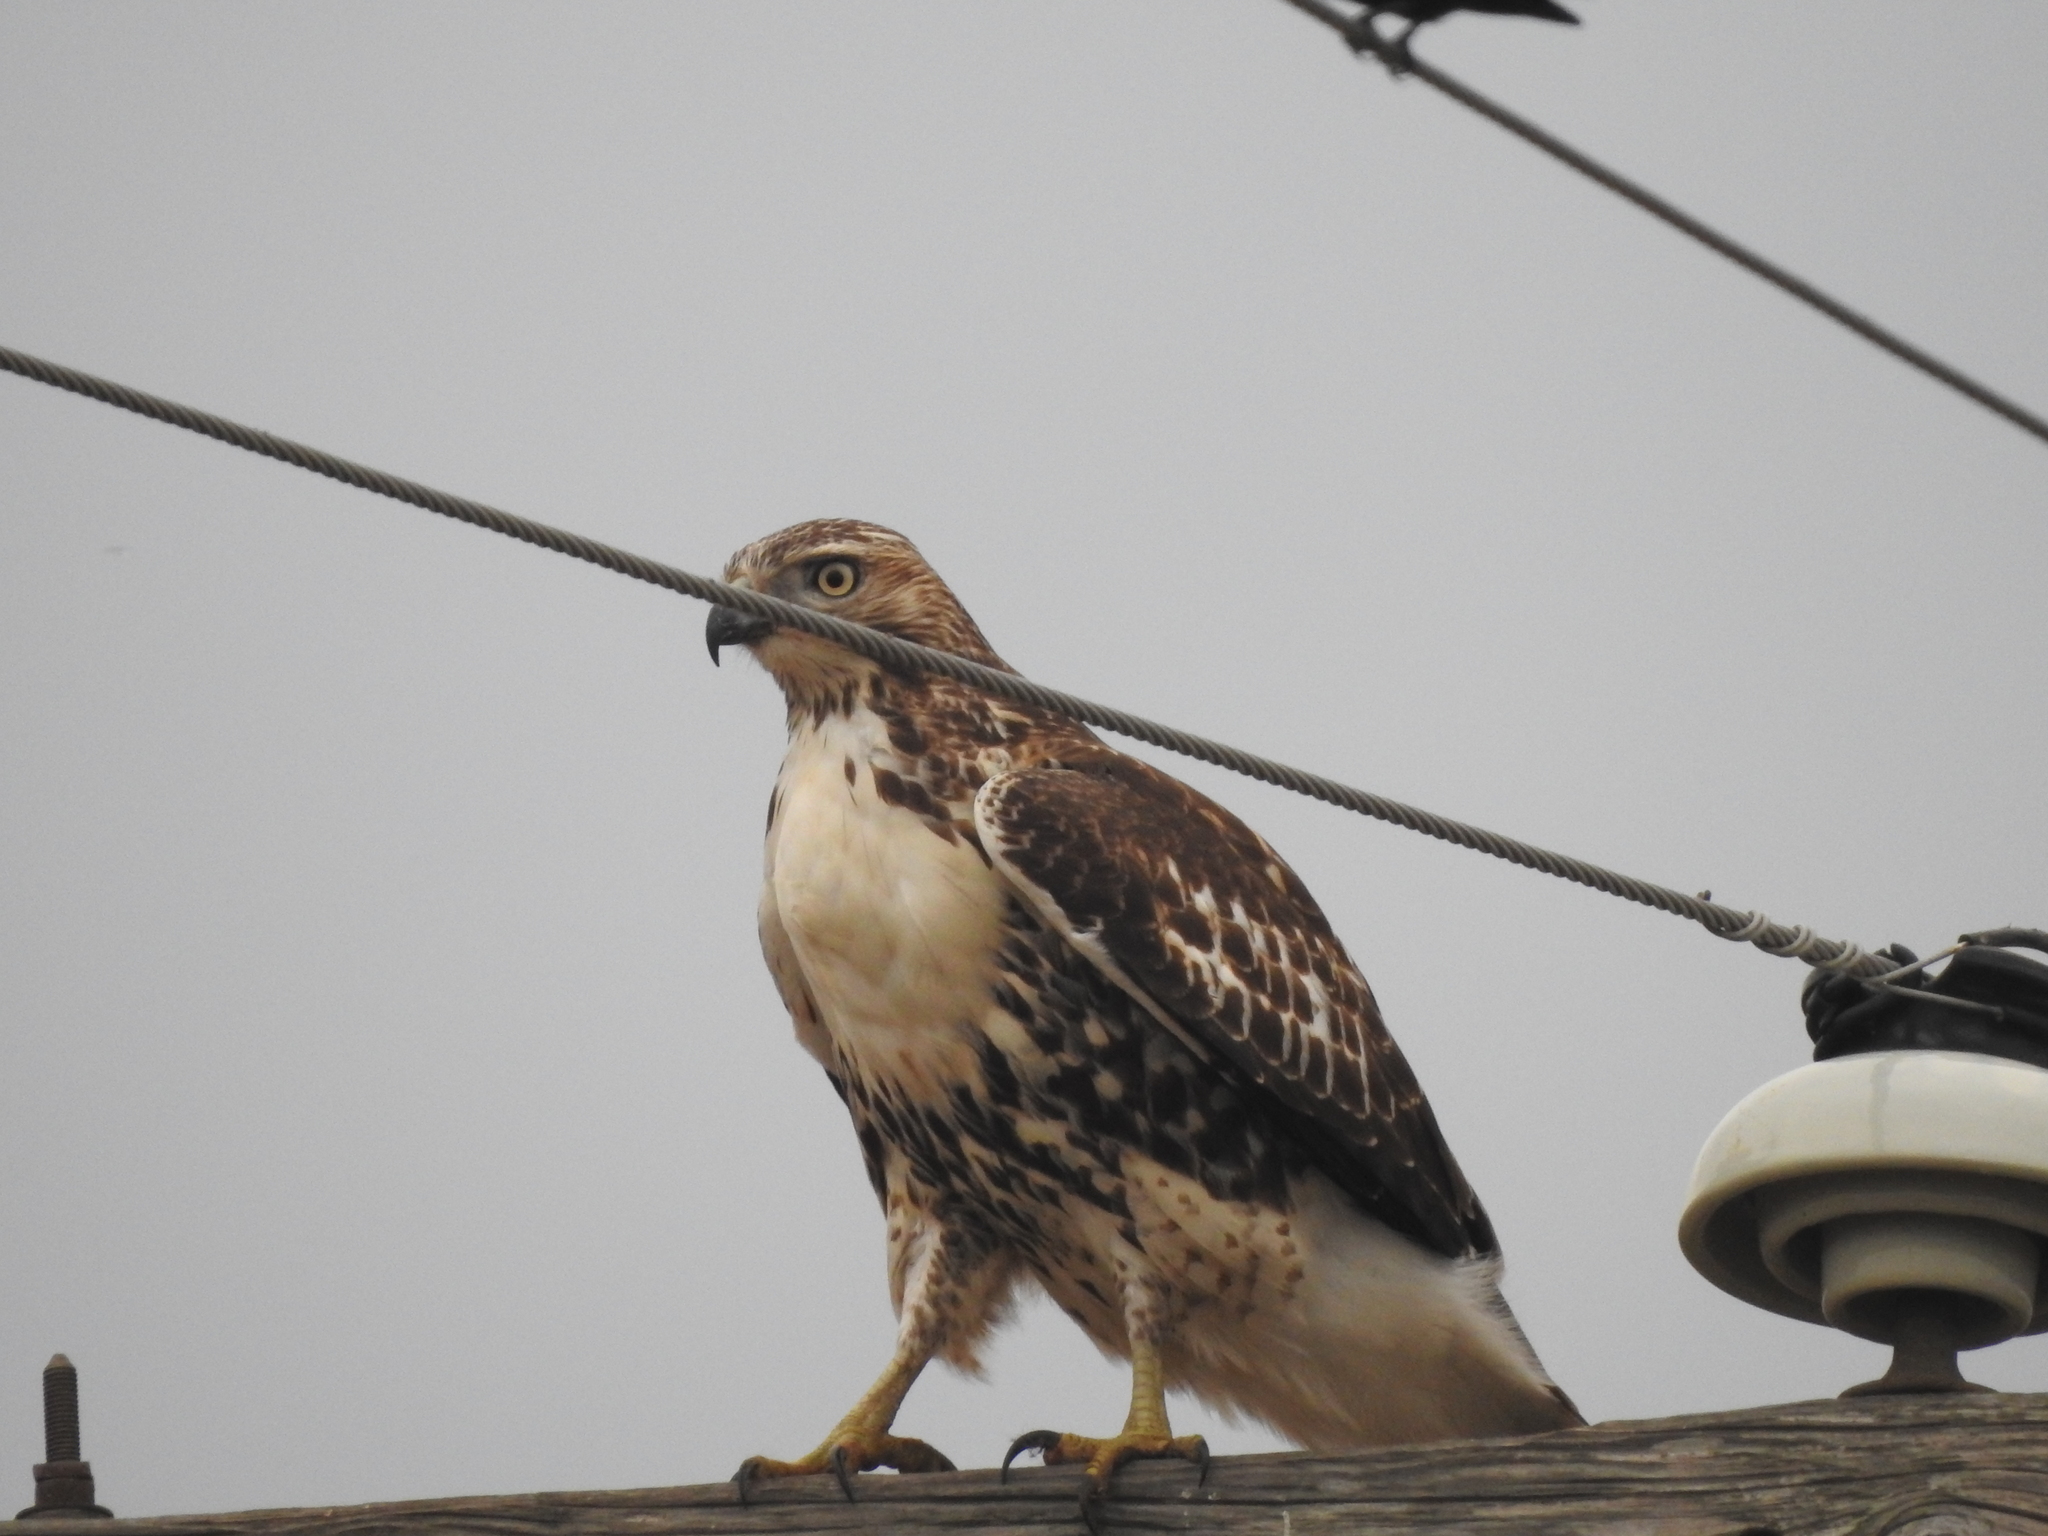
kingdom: Animalia
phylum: Chordata
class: Aves
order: Accipitriformes
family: Accipitridae
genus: Buteo
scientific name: Buteo jamaicensis
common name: Red-tailed hawk
